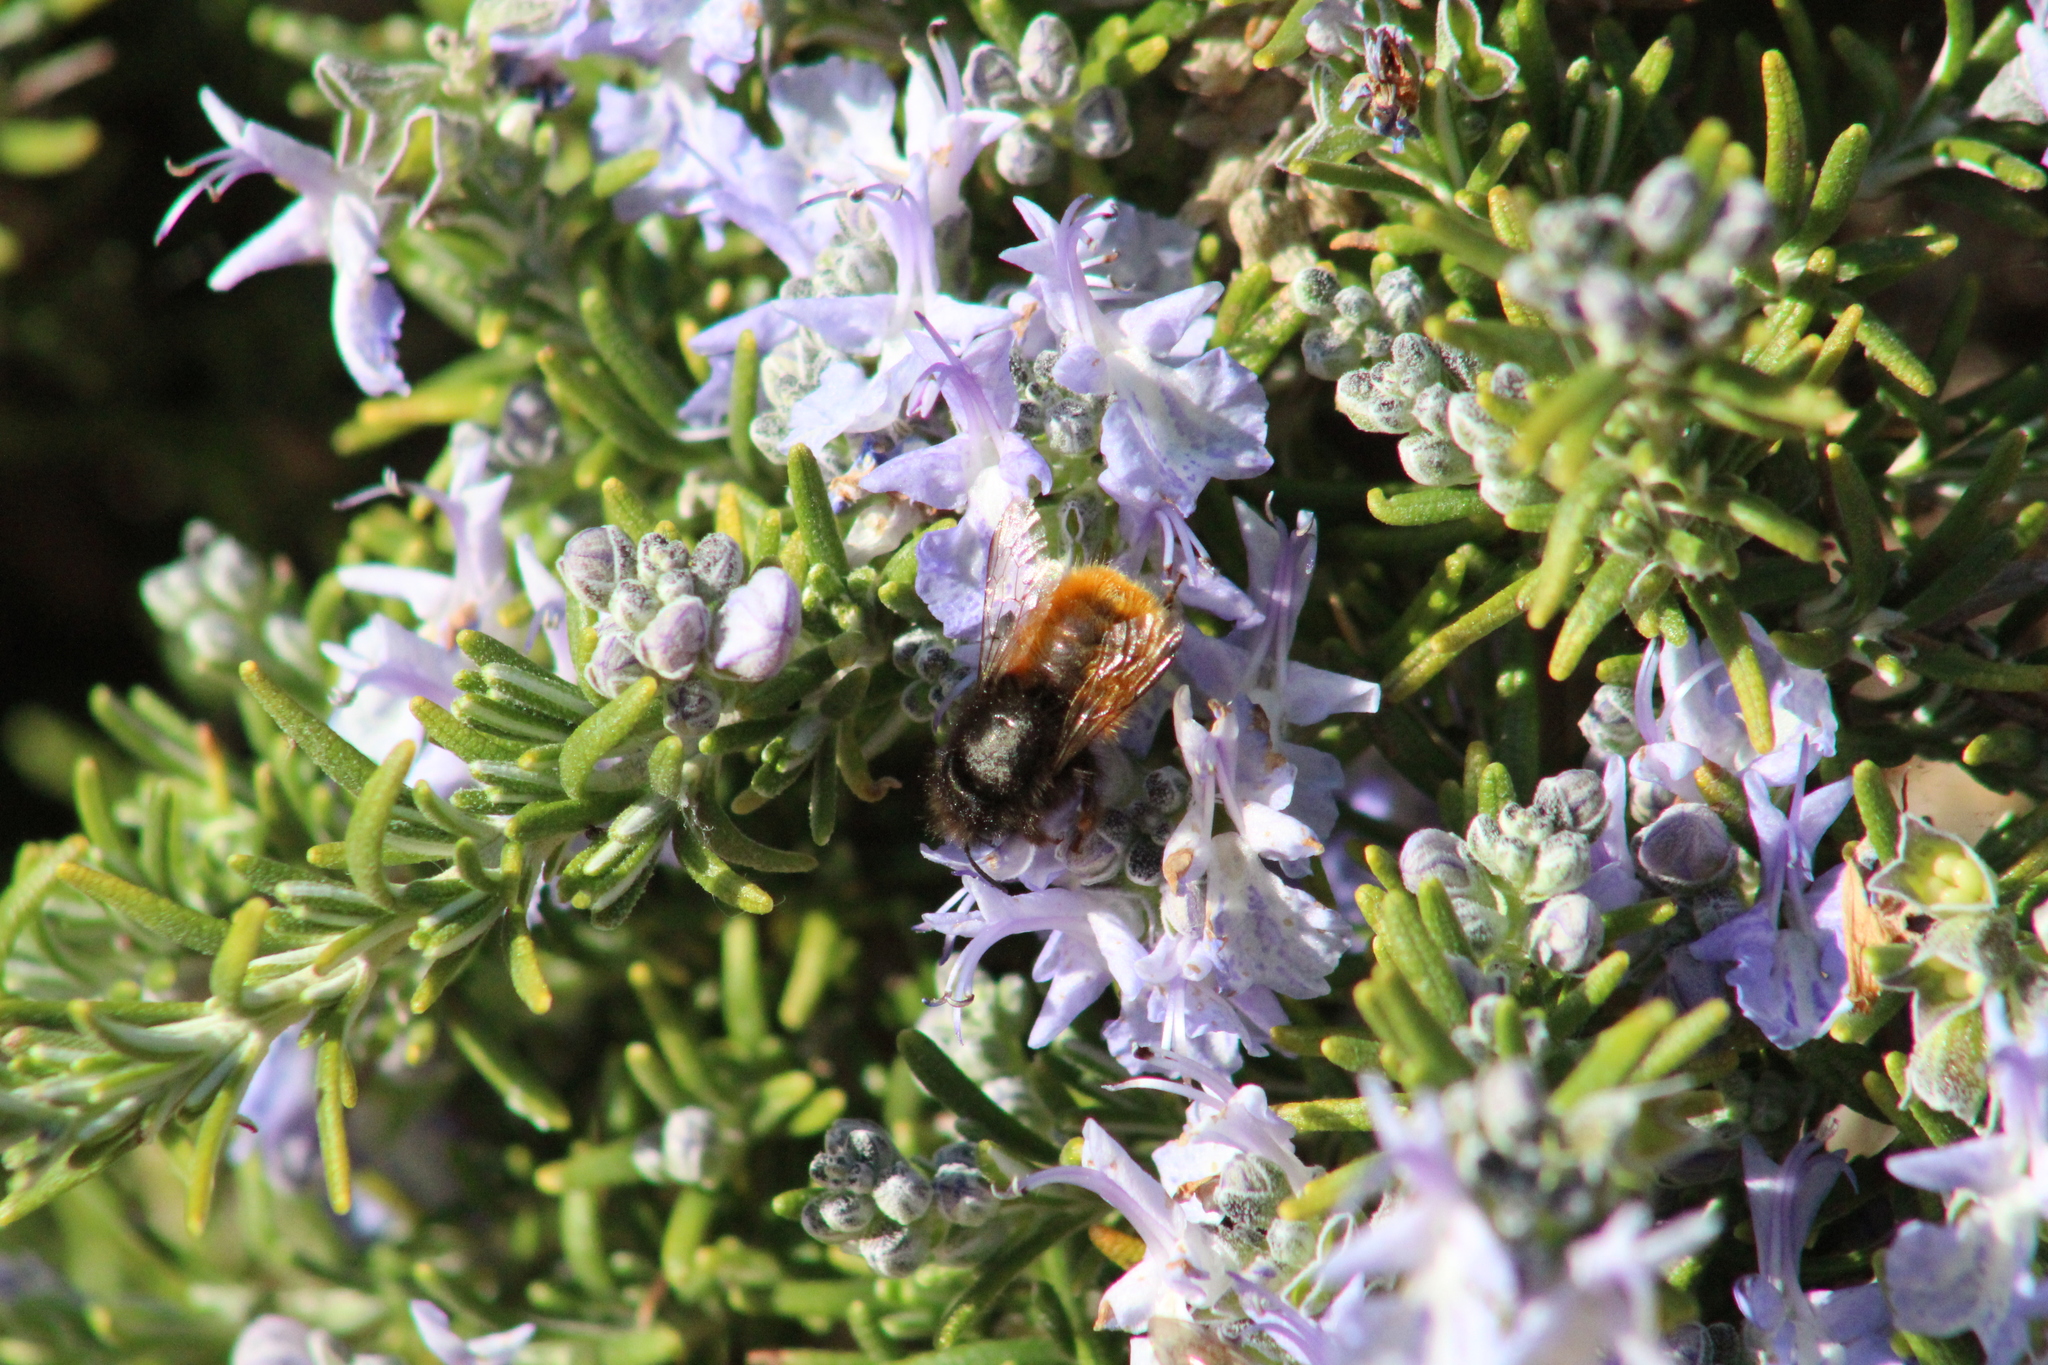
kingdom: Animalia
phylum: Arthropoda
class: Insecta
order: Hymenoptera
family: Megachilidae
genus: Osmia
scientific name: Osmia cornuta
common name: Mason bee
